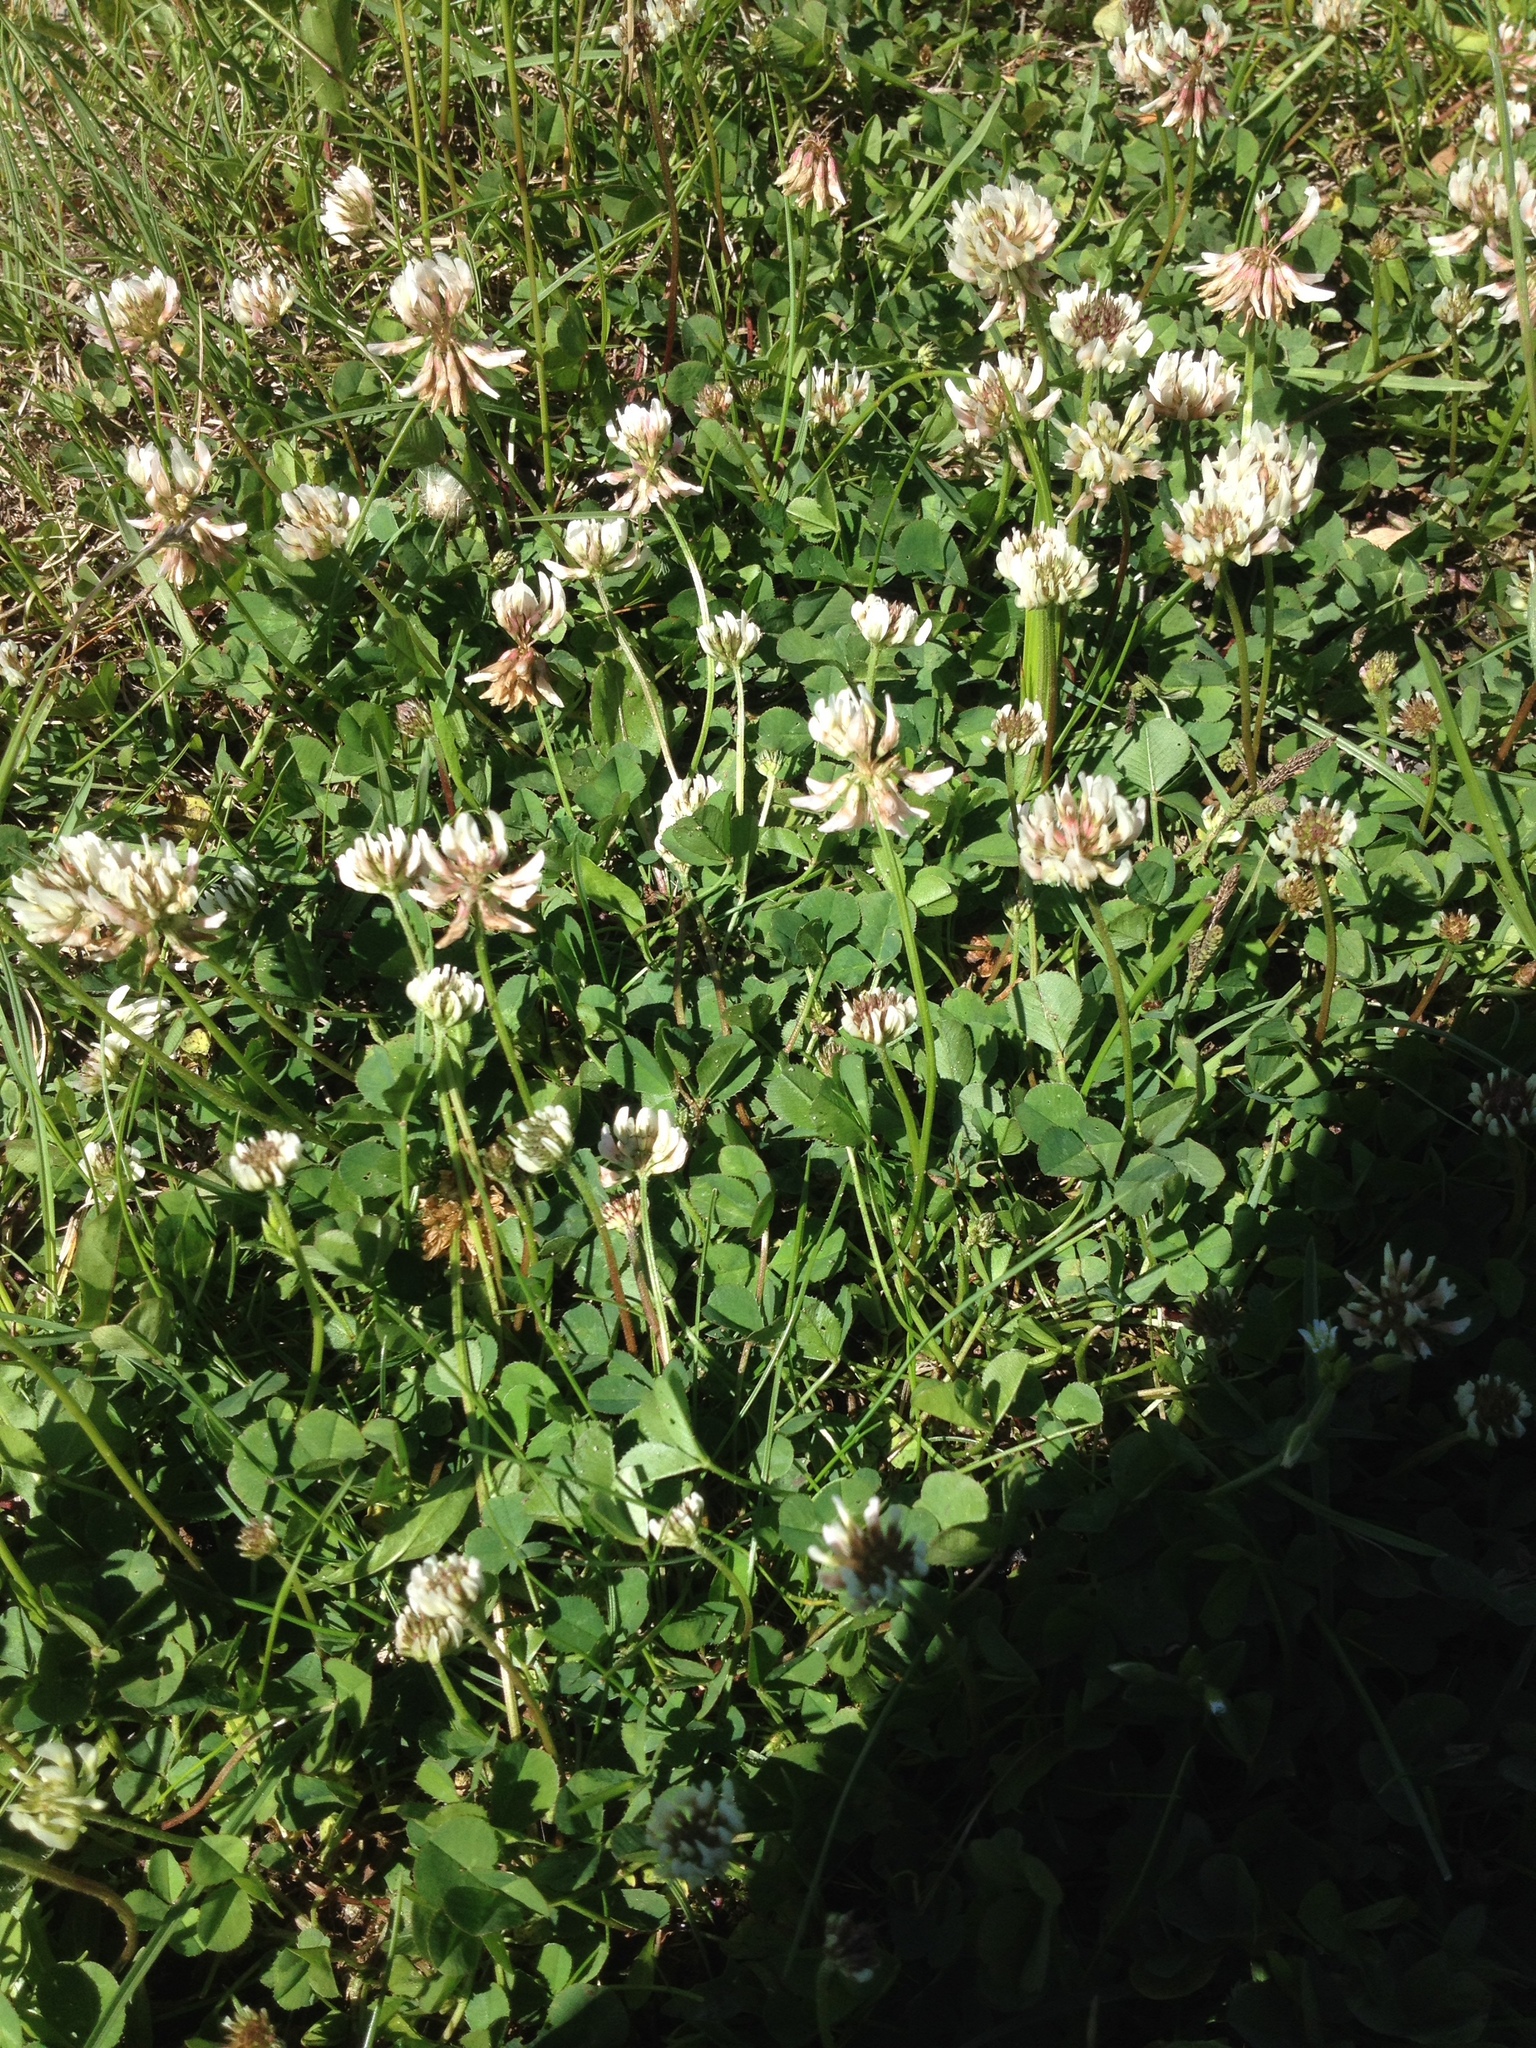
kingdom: Plantae
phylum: Tracheophyta
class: Magnoliopsida
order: Fabales
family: Fabaceae
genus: Trifolium
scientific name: Trifolium repens
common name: White clover
